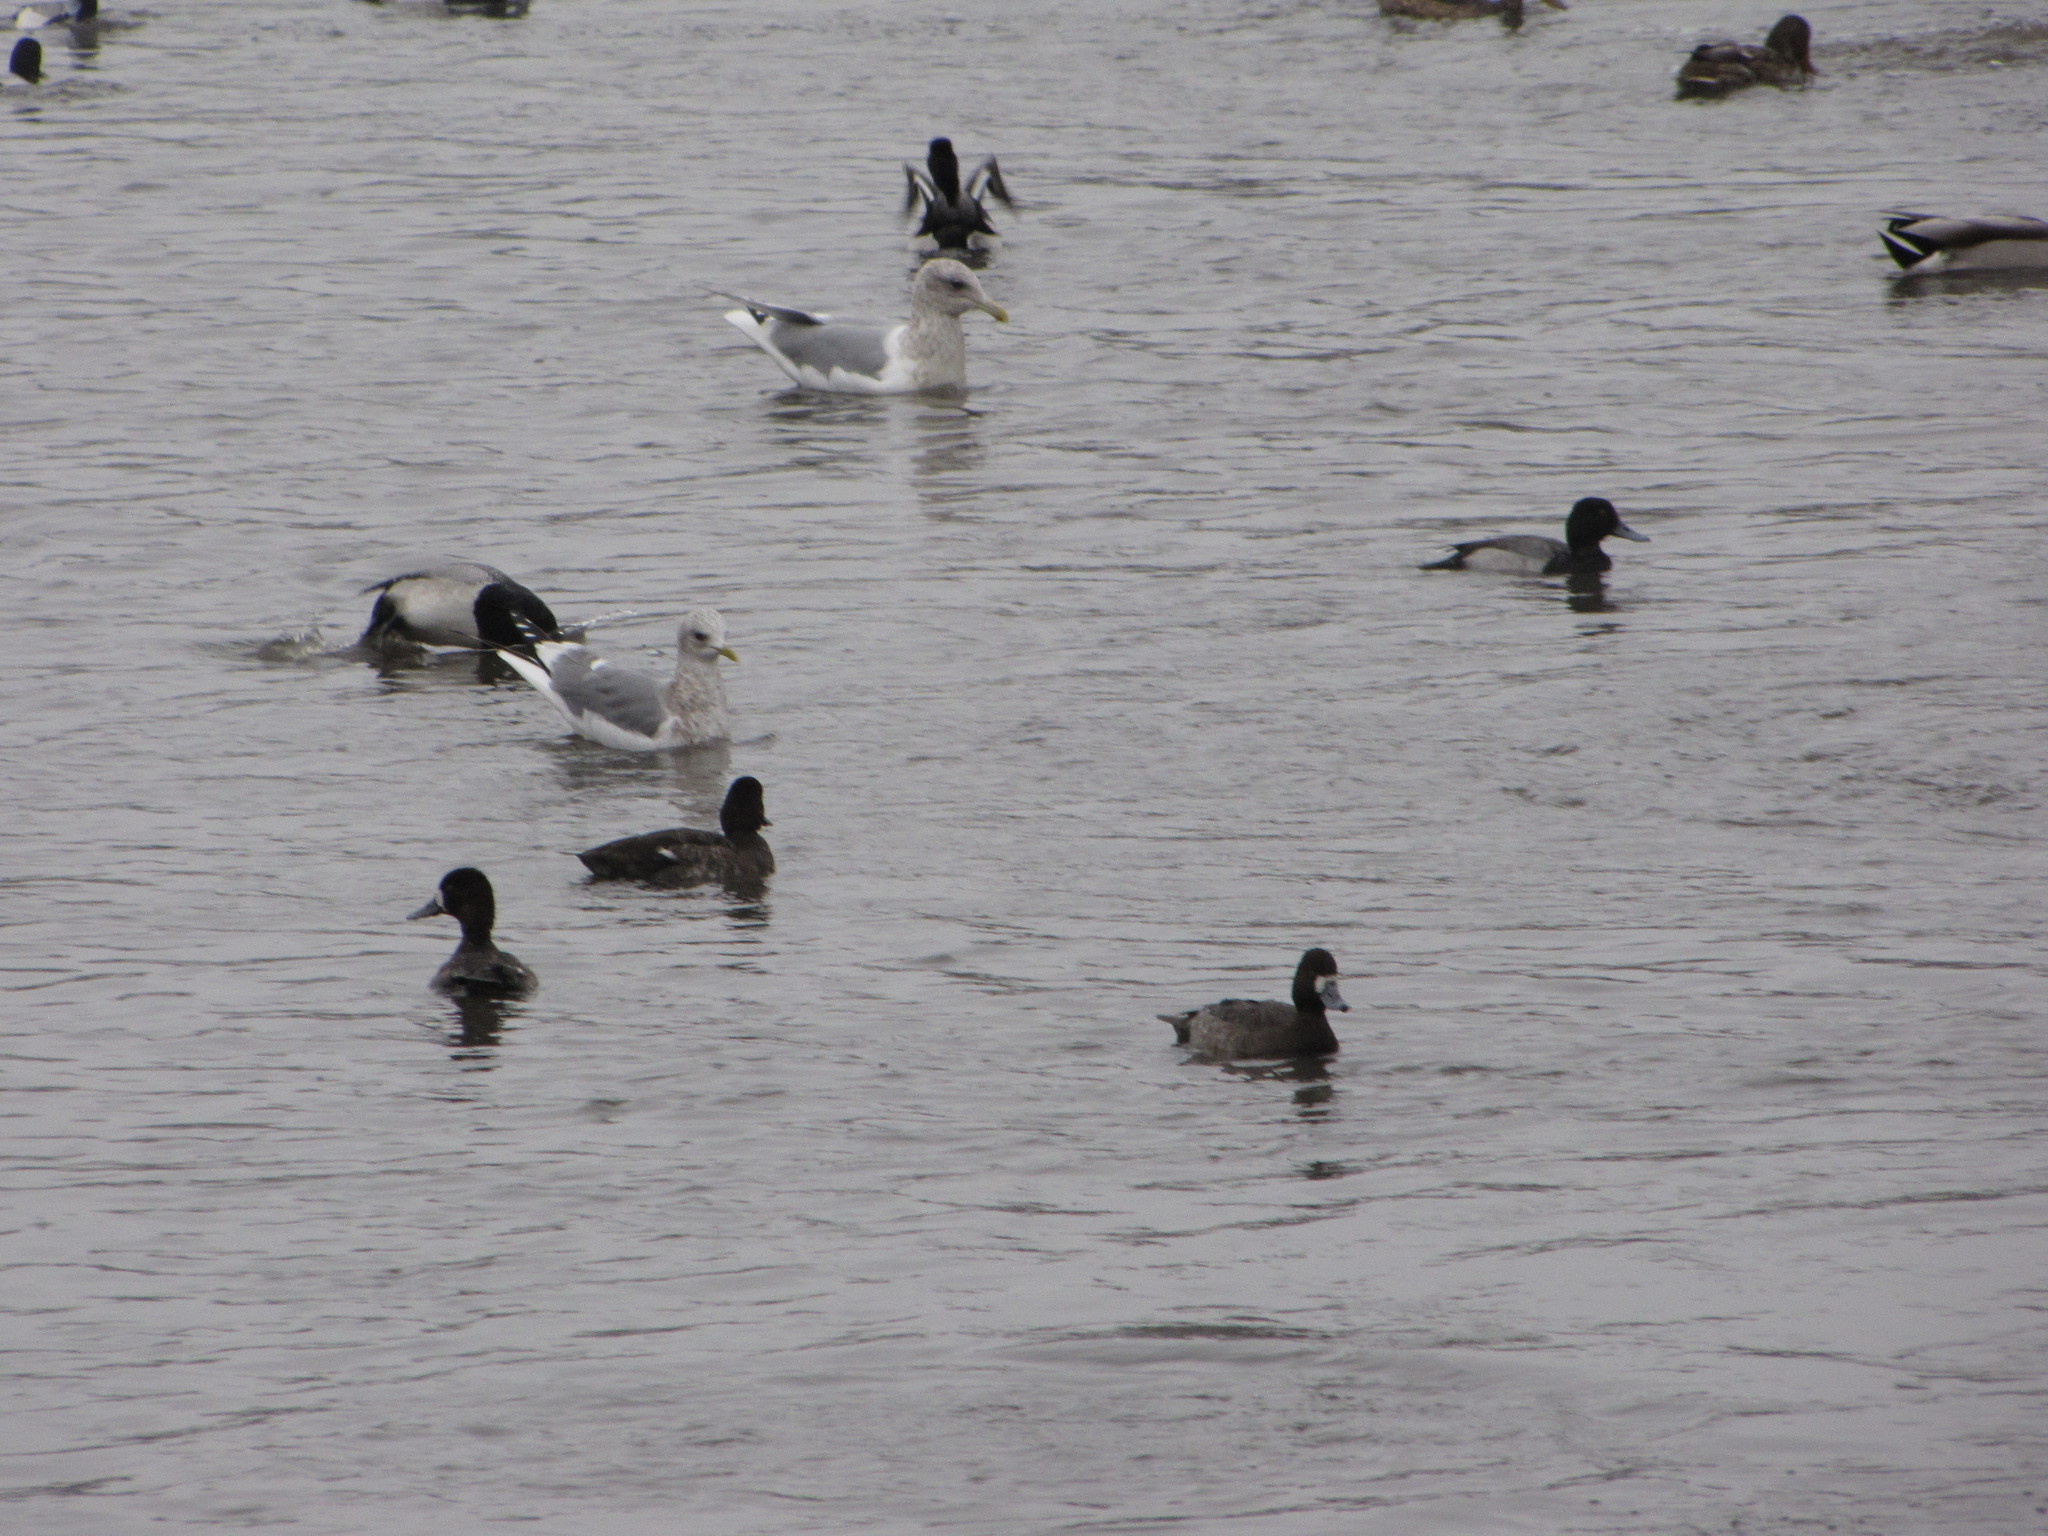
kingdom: Animalia
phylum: Chordata
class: Aves
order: Anseriformes
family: Anatidae
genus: Aythya
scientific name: Aythya affinis
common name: Lesser scaup
